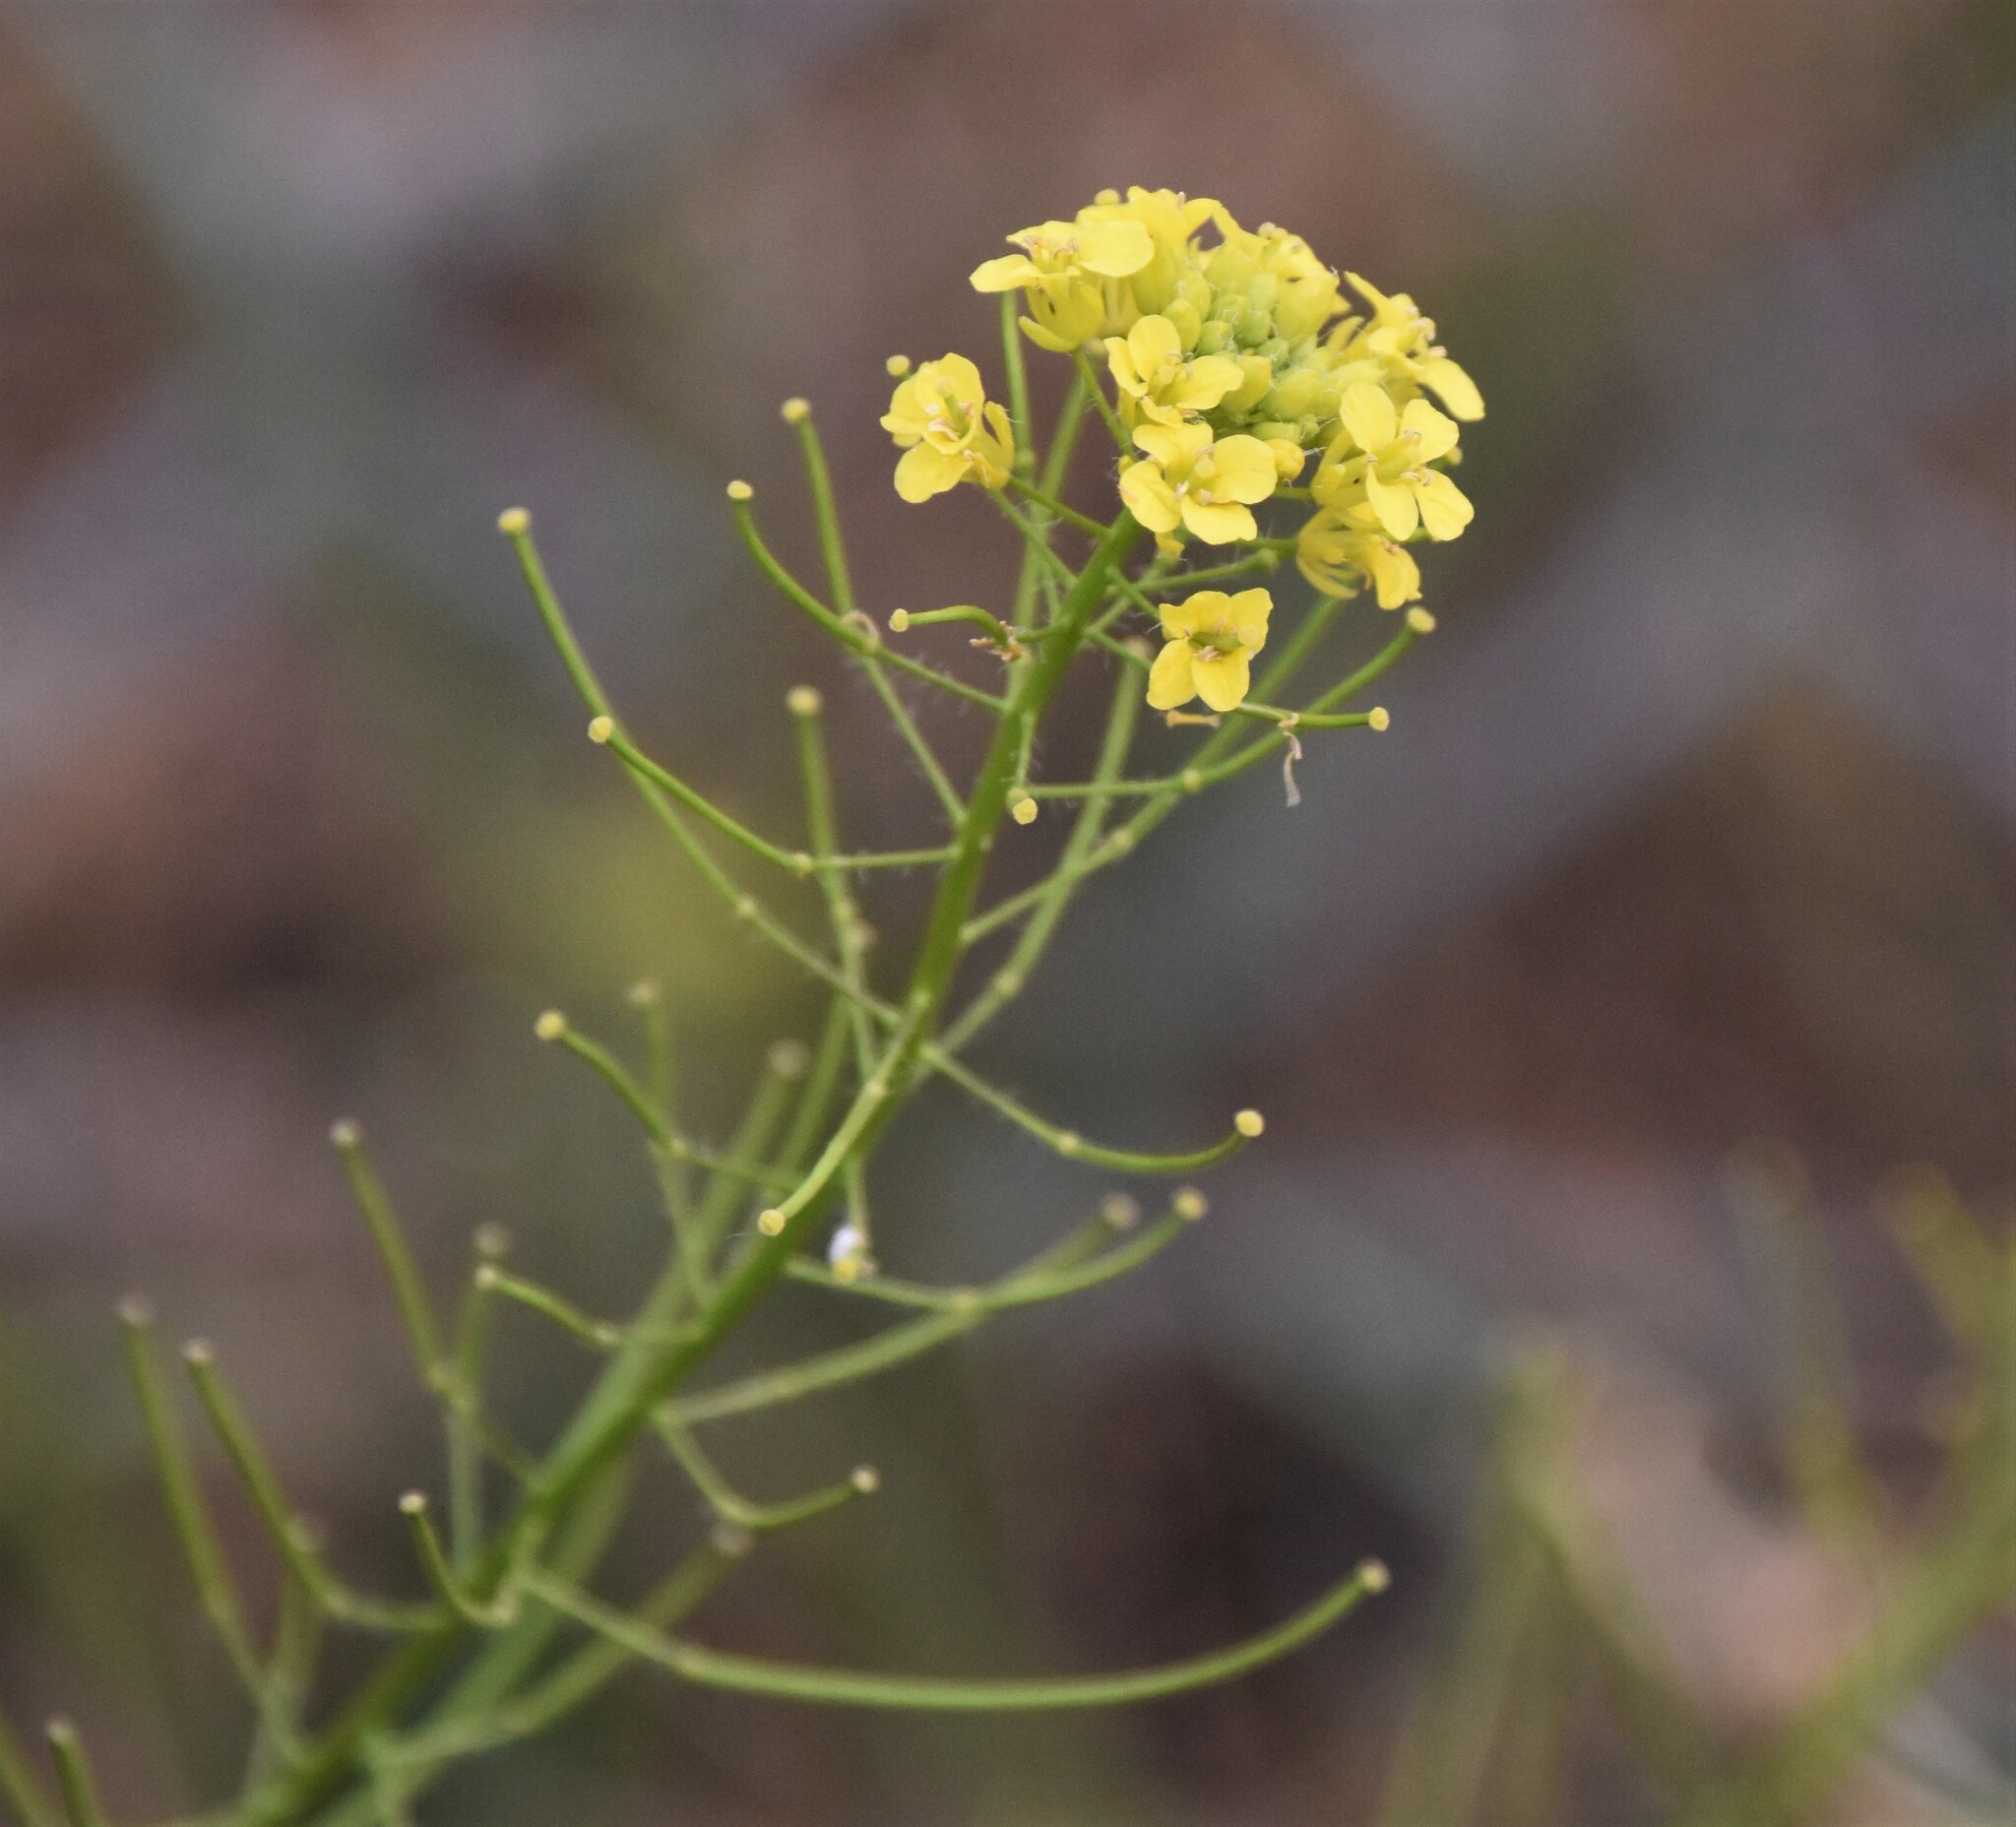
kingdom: Plantae
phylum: Tracheophyta
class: Magnoliopsida
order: Brassicales
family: Brassicaceae
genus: Sisymbrium
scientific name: Sisymbrium loeselii
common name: False london-rocket
